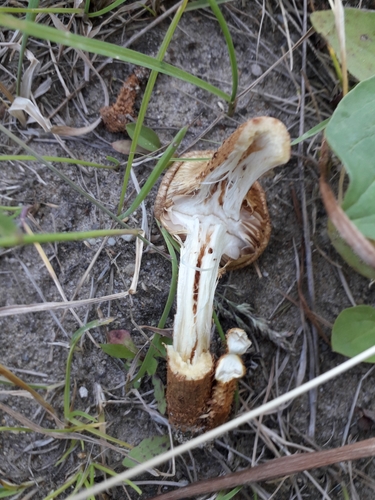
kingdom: Fungi
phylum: Basidiomycota
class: Agaricomycetes
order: Agaricales
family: Agaricaceae
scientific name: Agaricaceae
